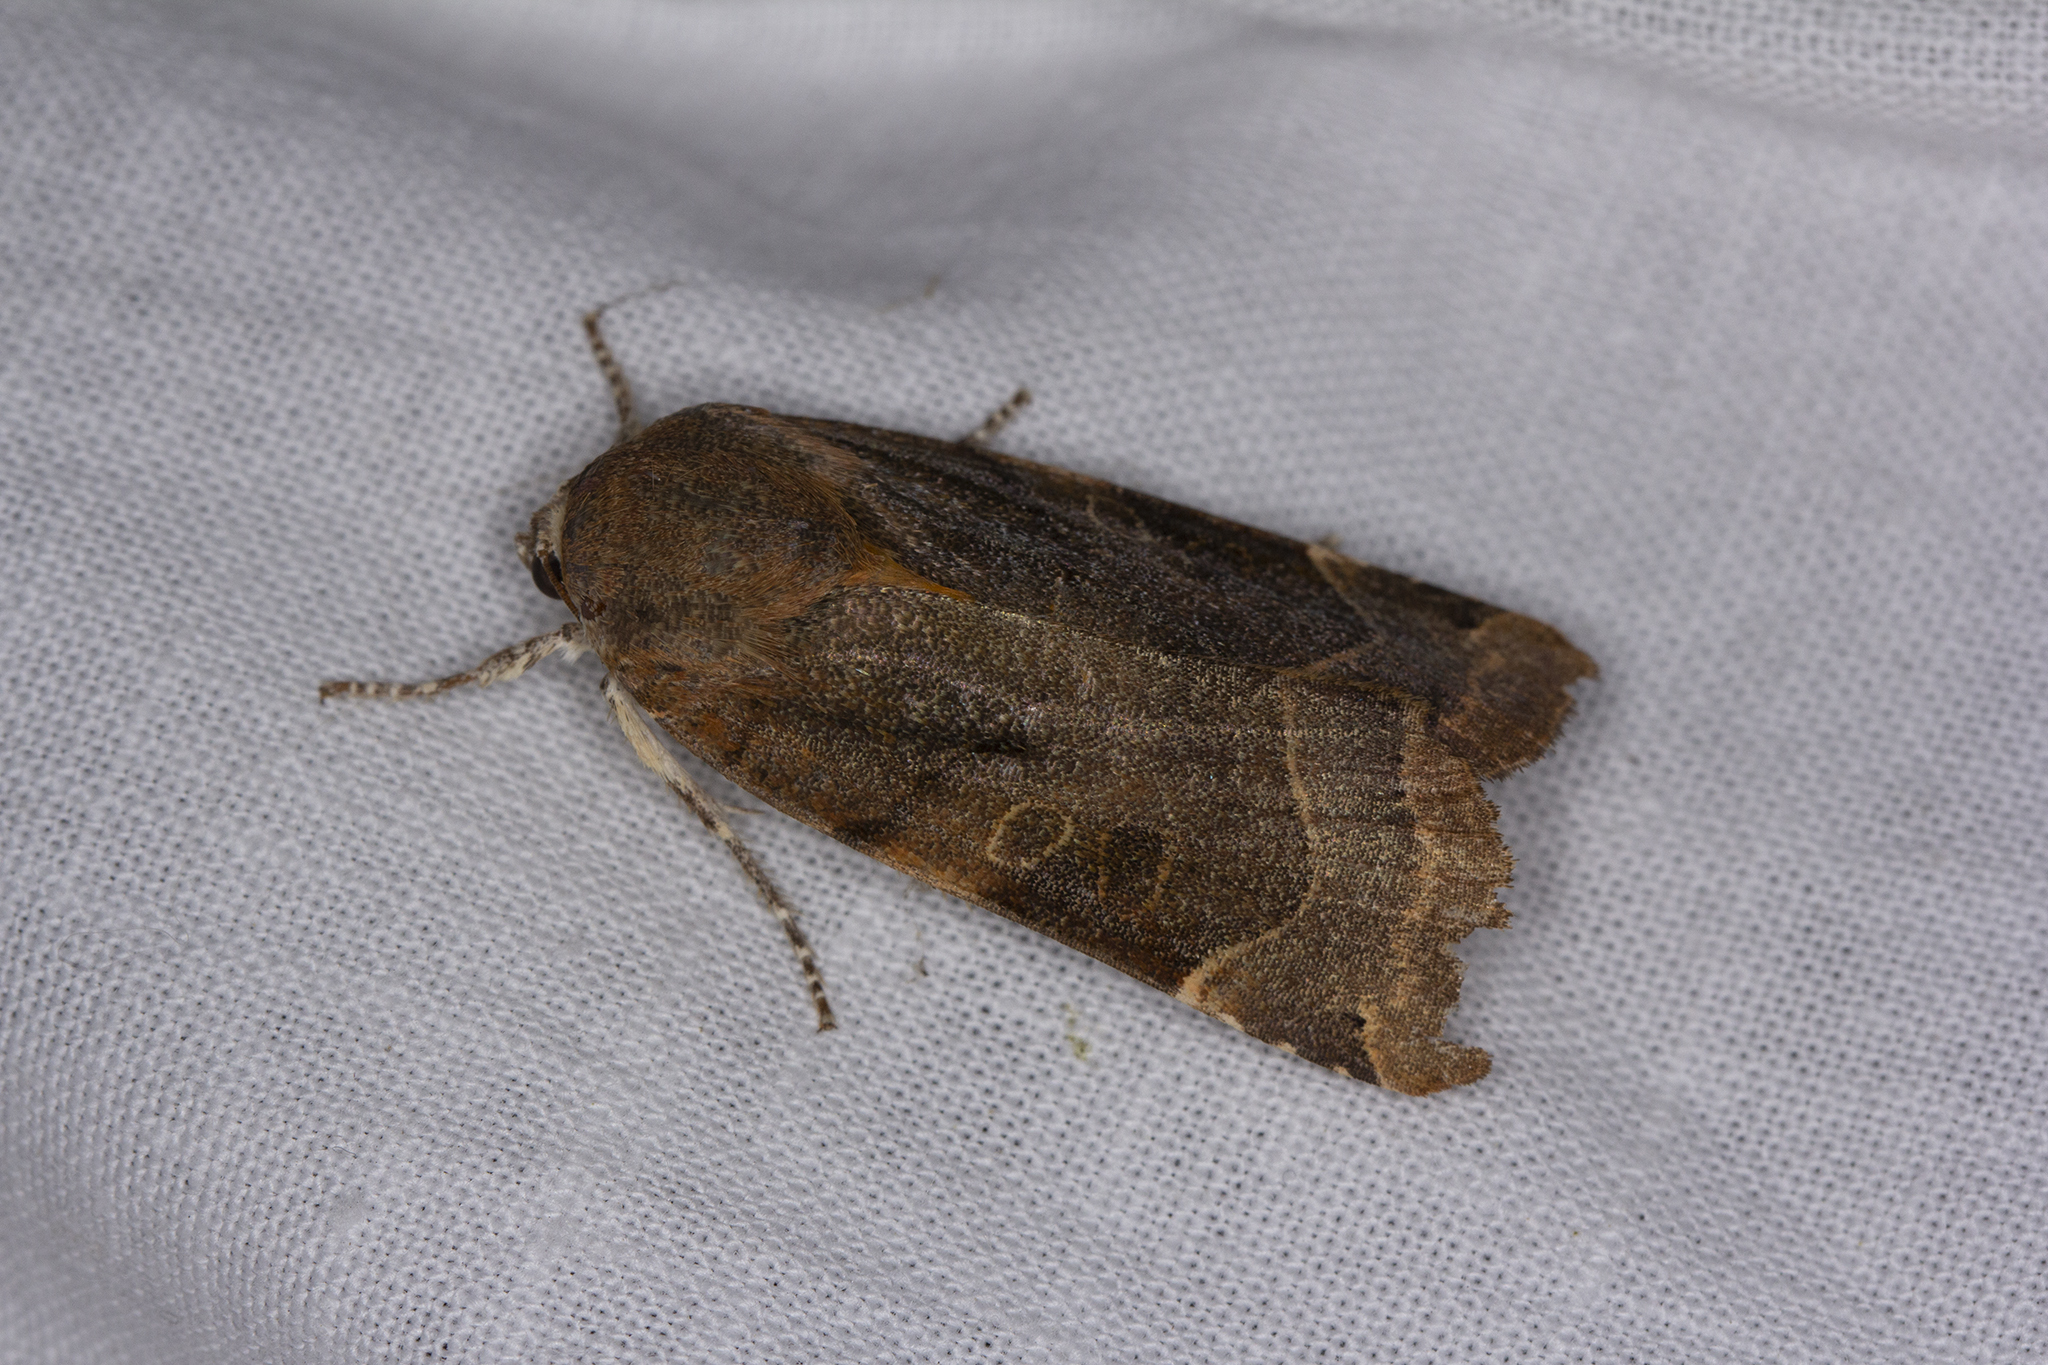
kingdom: Animalia
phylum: Arthropoda
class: Insecta
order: Lepidoptera
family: Noctuidae
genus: Noctua
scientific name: Noctua fimbriata
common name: Broad-bordered yellow underwing
